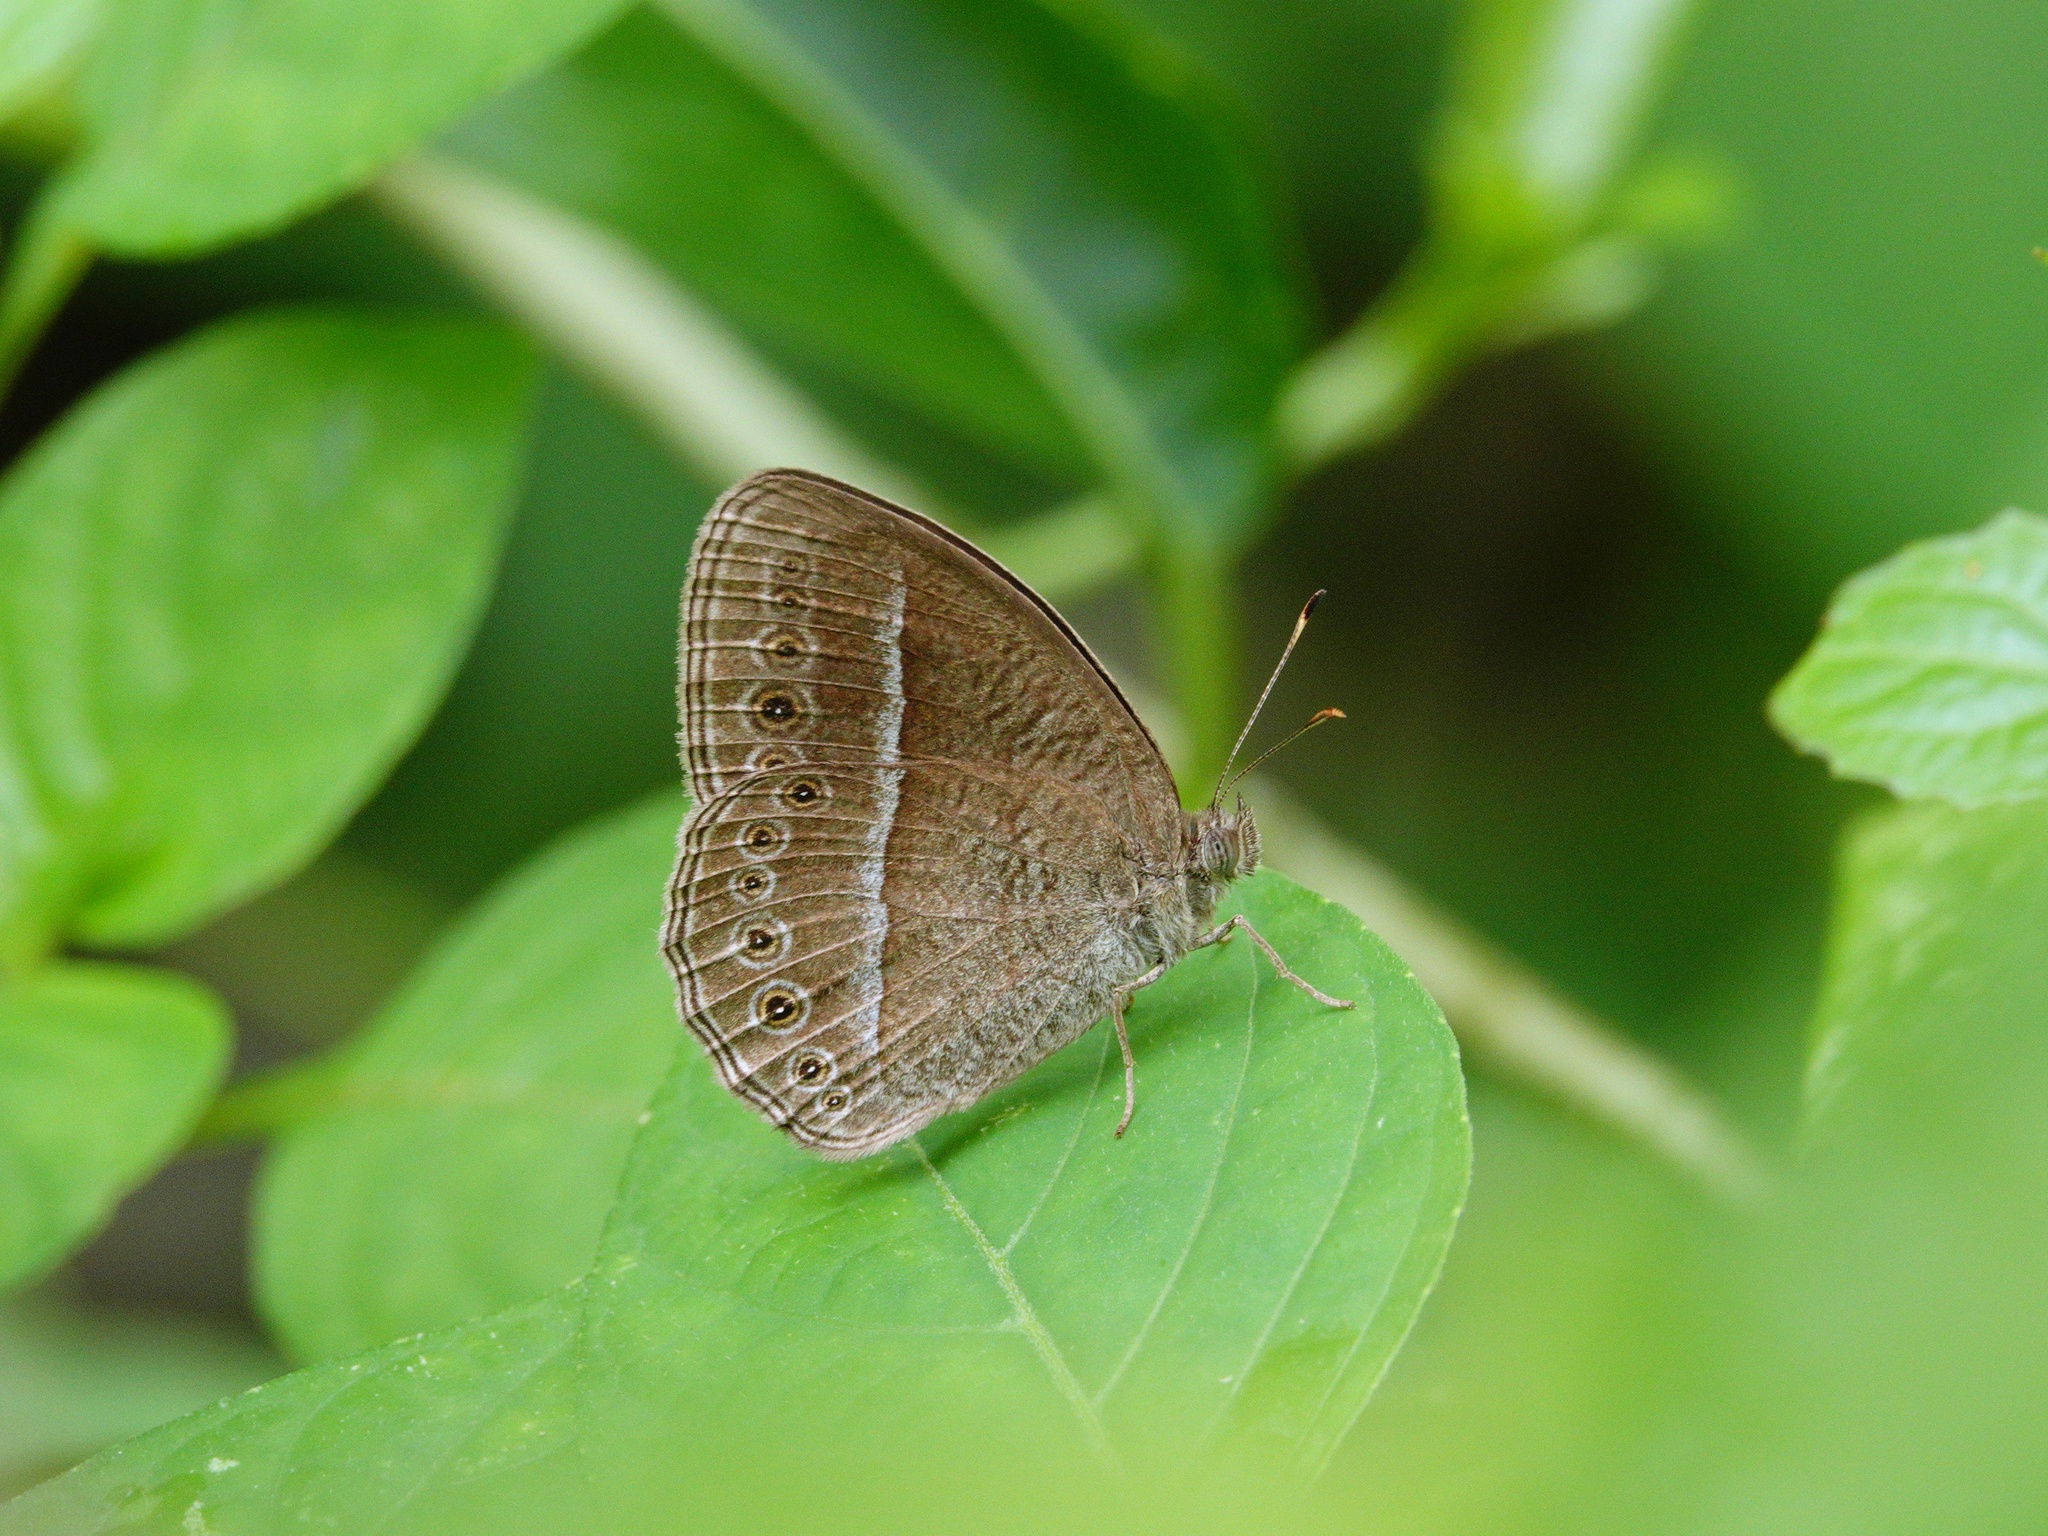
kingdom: Animalia
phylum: Arthropoda
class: Insecta
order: Lepidoptera
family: Nymphalidae
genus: Mycalesis
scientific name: Mycalesis Telinga janardana
